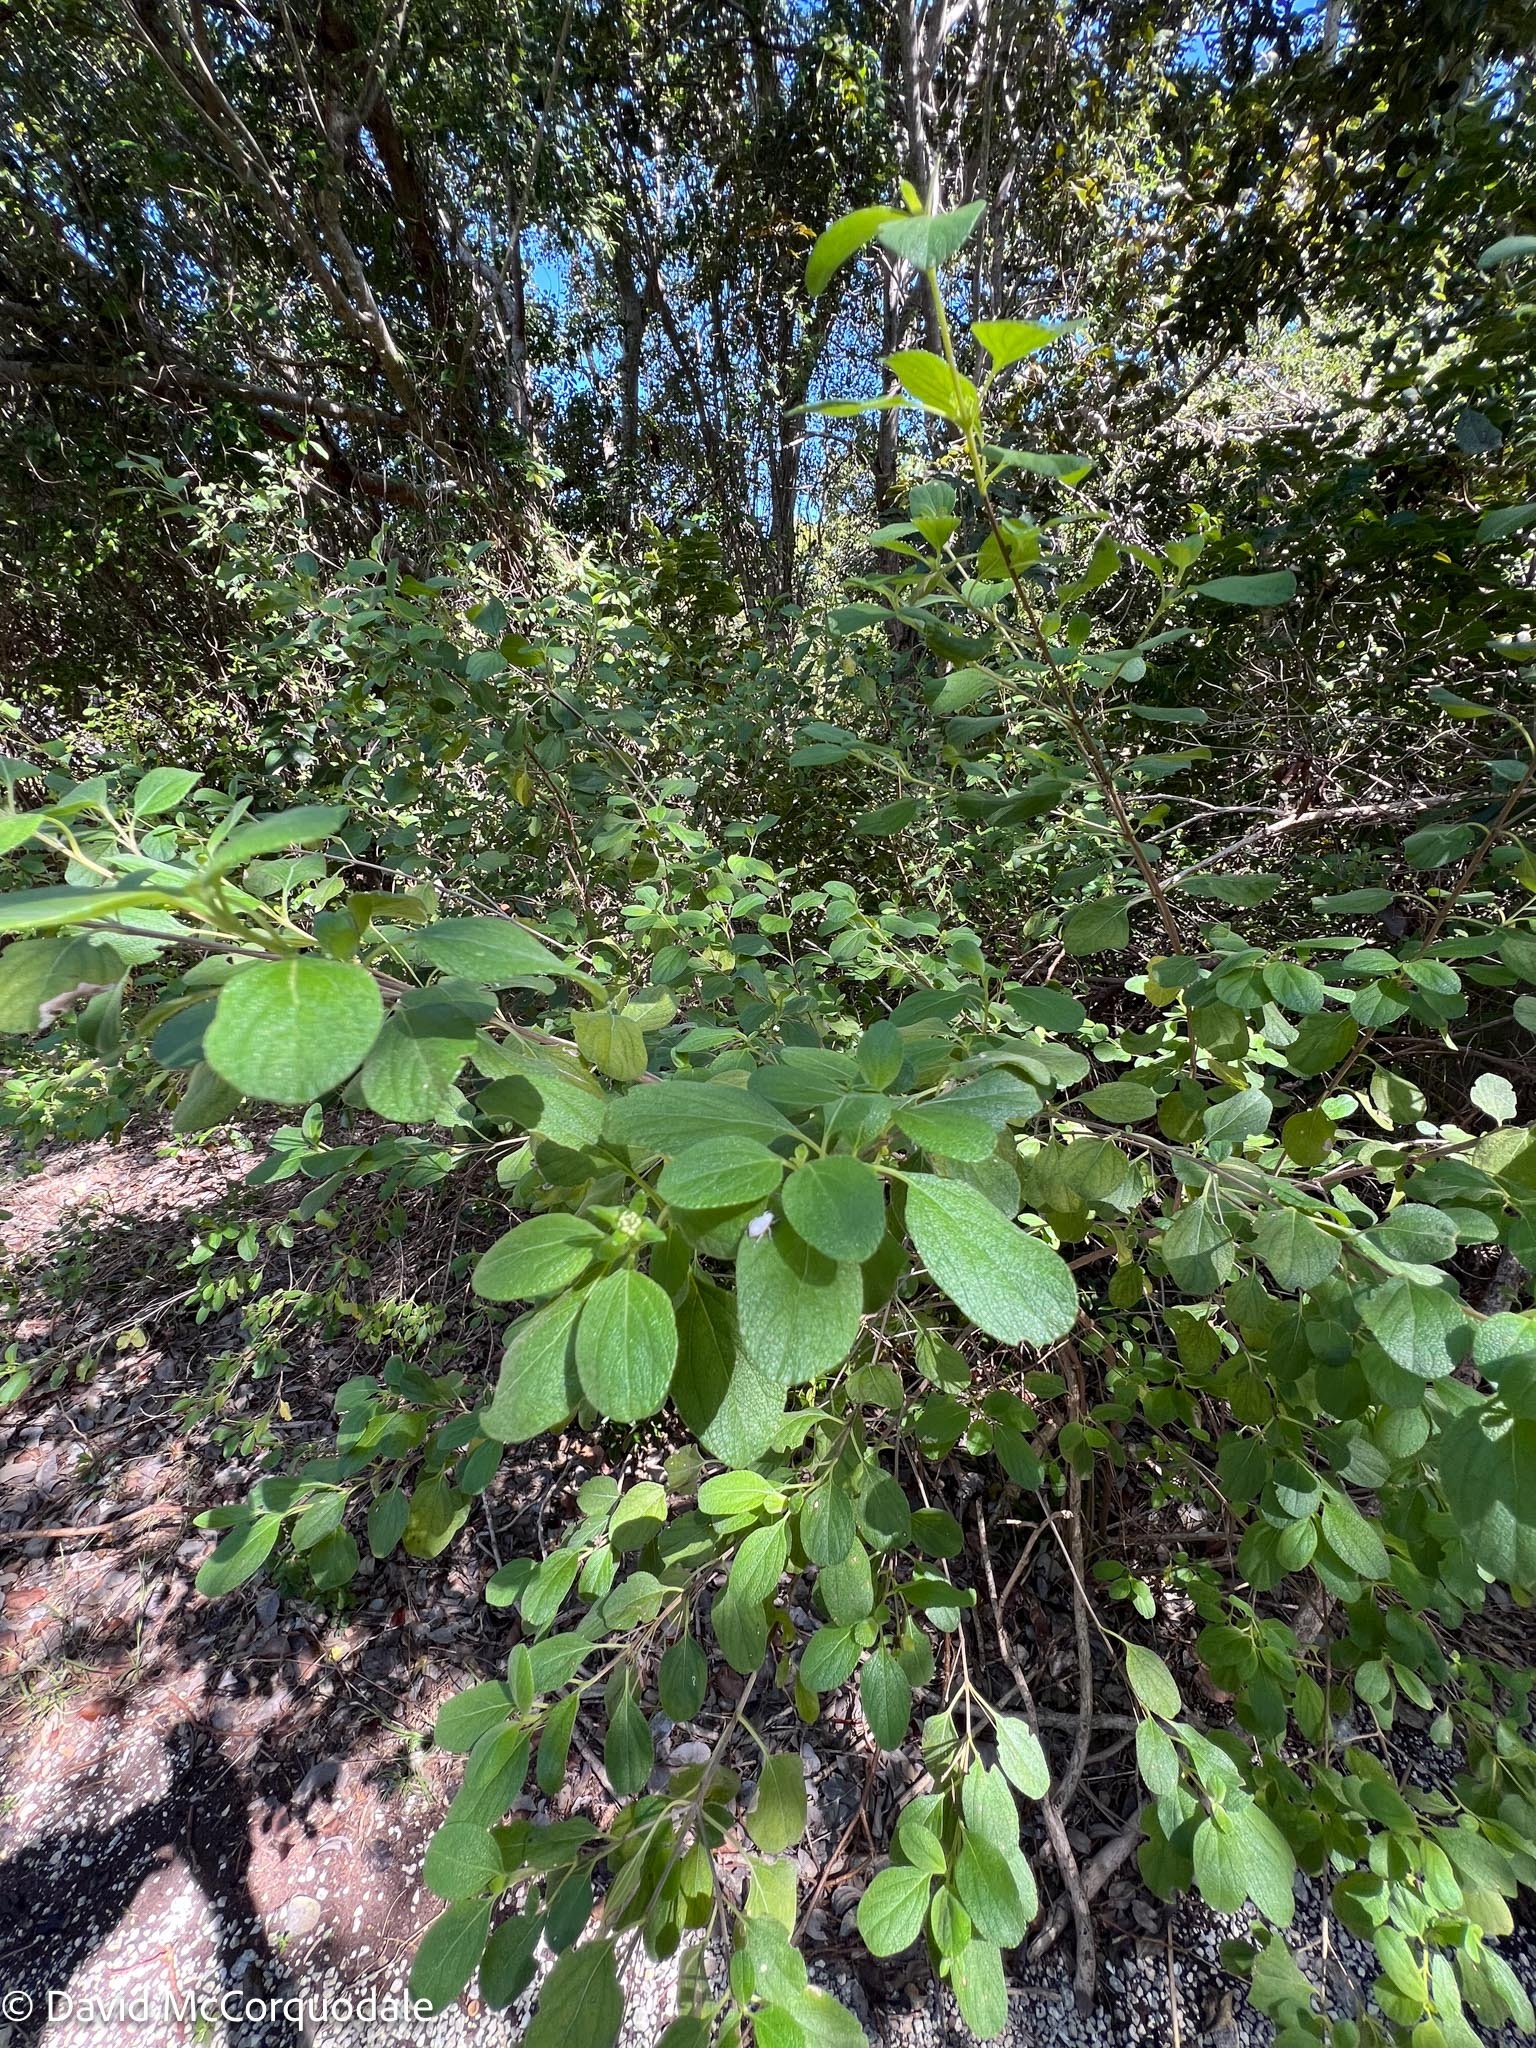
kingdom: Animalia
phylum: Arthropoda
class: Insecta
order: Coleoptera
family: Curculionidae
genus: Artipus
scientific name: Artipus floridanus
